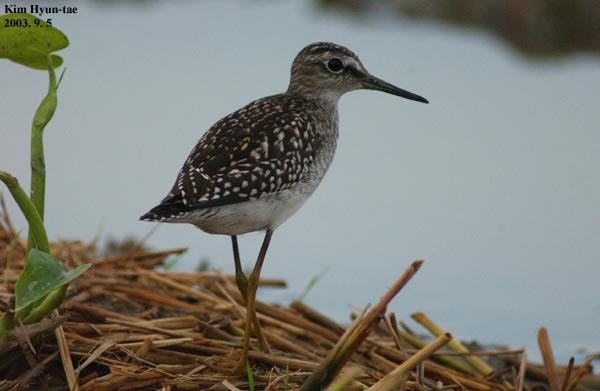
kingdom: Animalia
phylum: Chordata
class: Aves
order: Charadriiformes
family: Scolopacidae
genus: Tringa
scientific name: Tringa glareola
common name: Wood sandpiper
